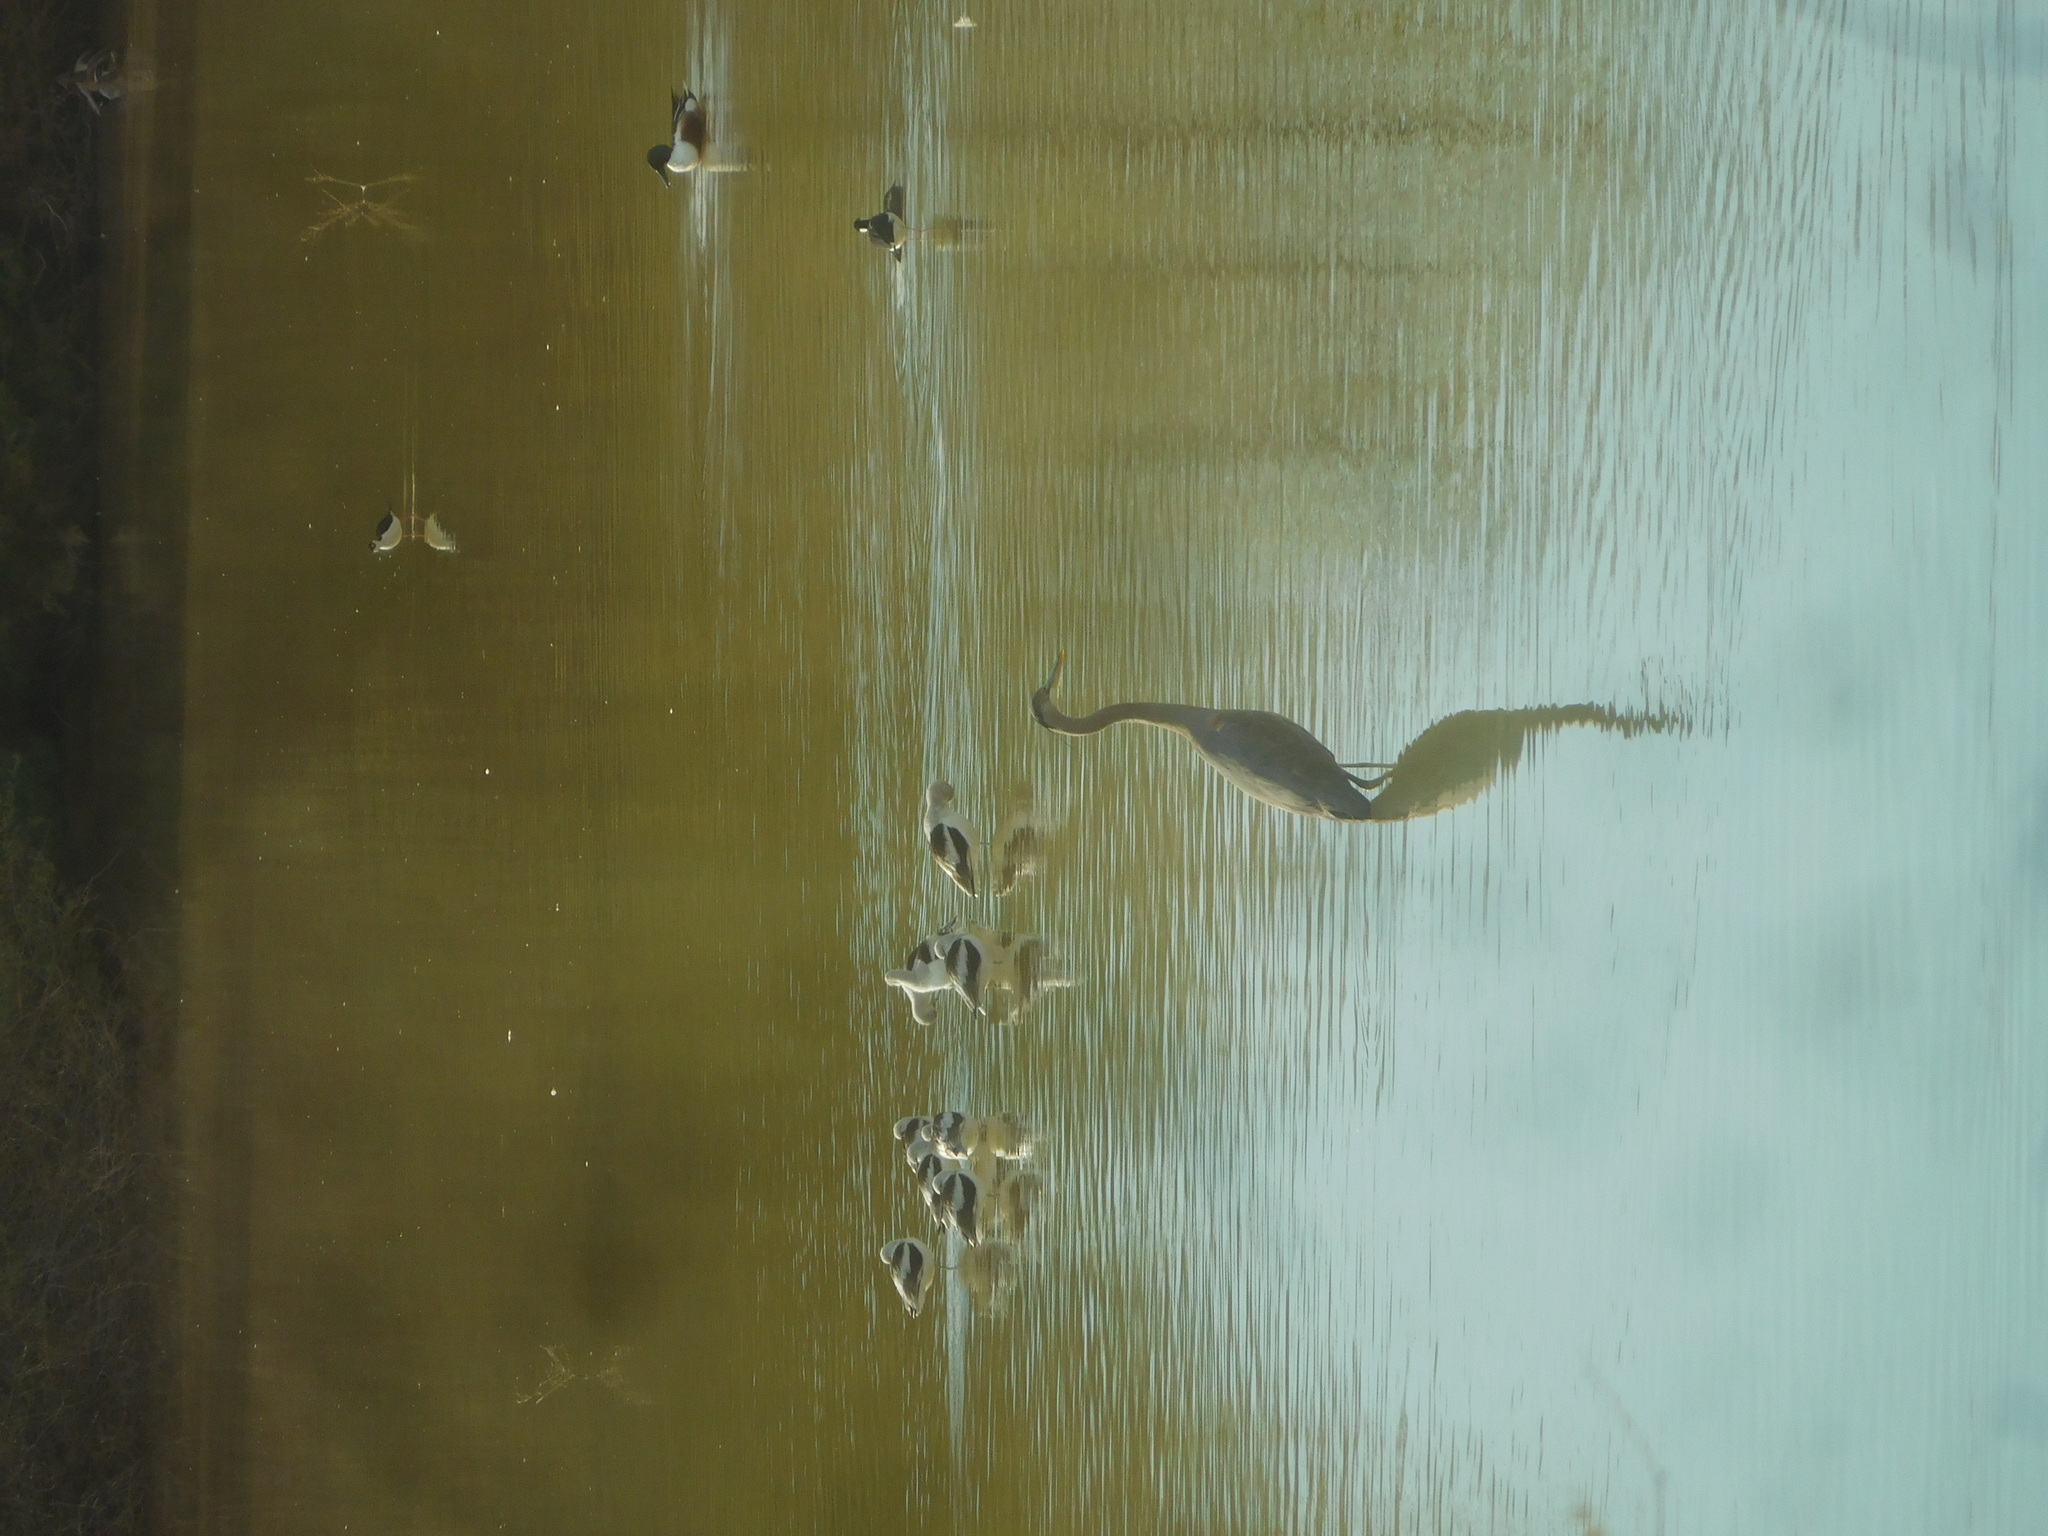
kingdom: Animalia
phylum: Chordata
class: Aves
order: Pelecaniformes
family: Ardeidae
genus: Ardea
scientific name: Ardea herodias
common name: Great blue heron
